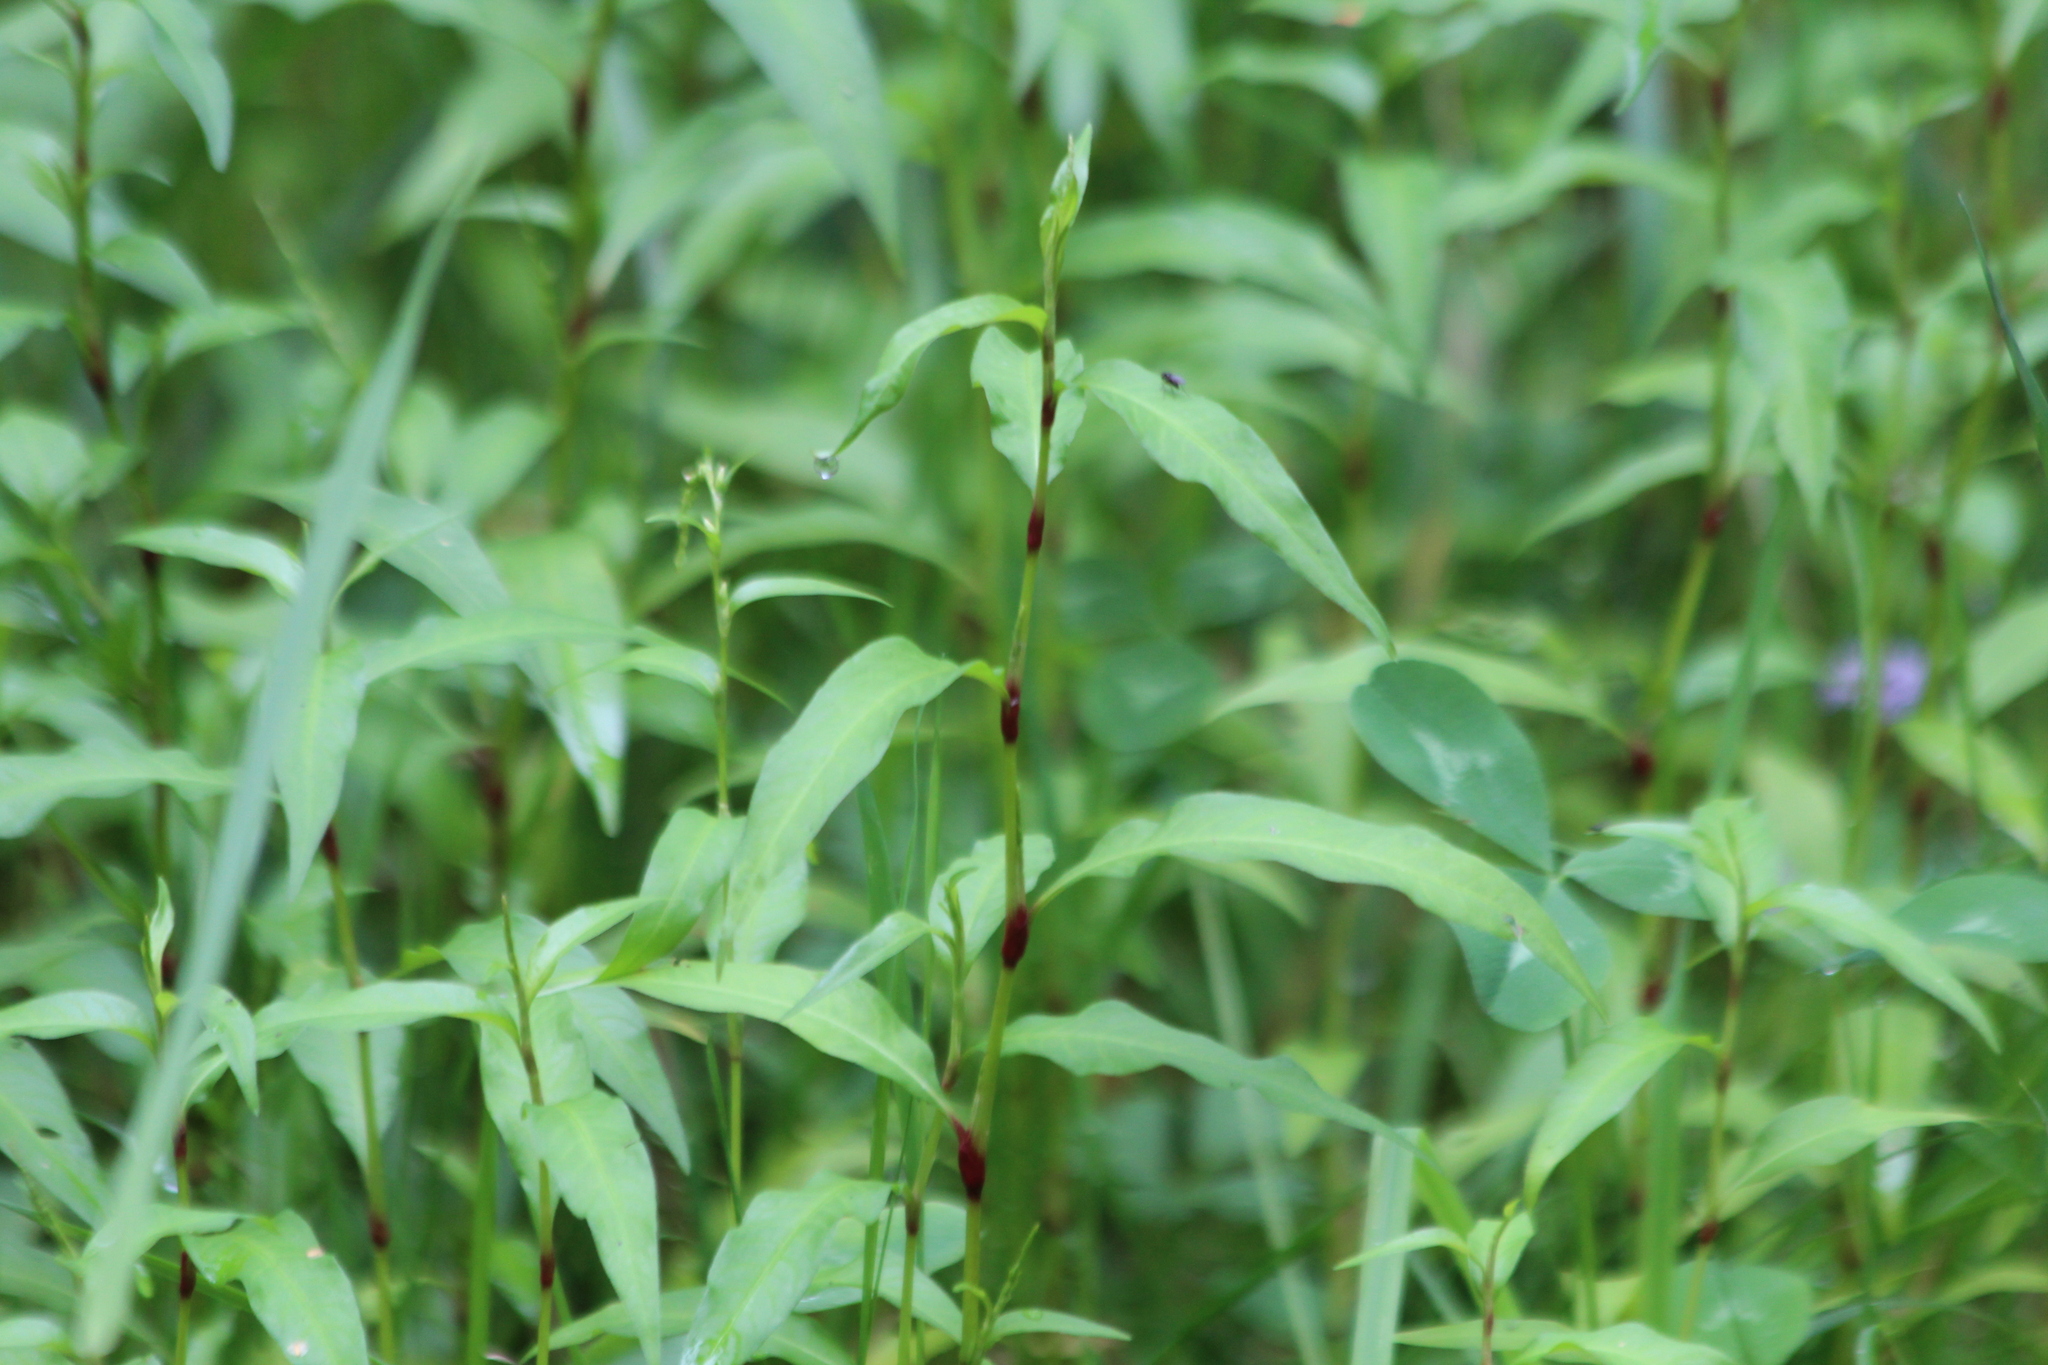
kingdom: Plantae
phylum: Tracheophyta
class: Magnoliopsida
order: Caryophyllales
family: Polygonaceae
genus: Persicaria
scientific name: Persicaria hydropiper
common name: Water-pepper
